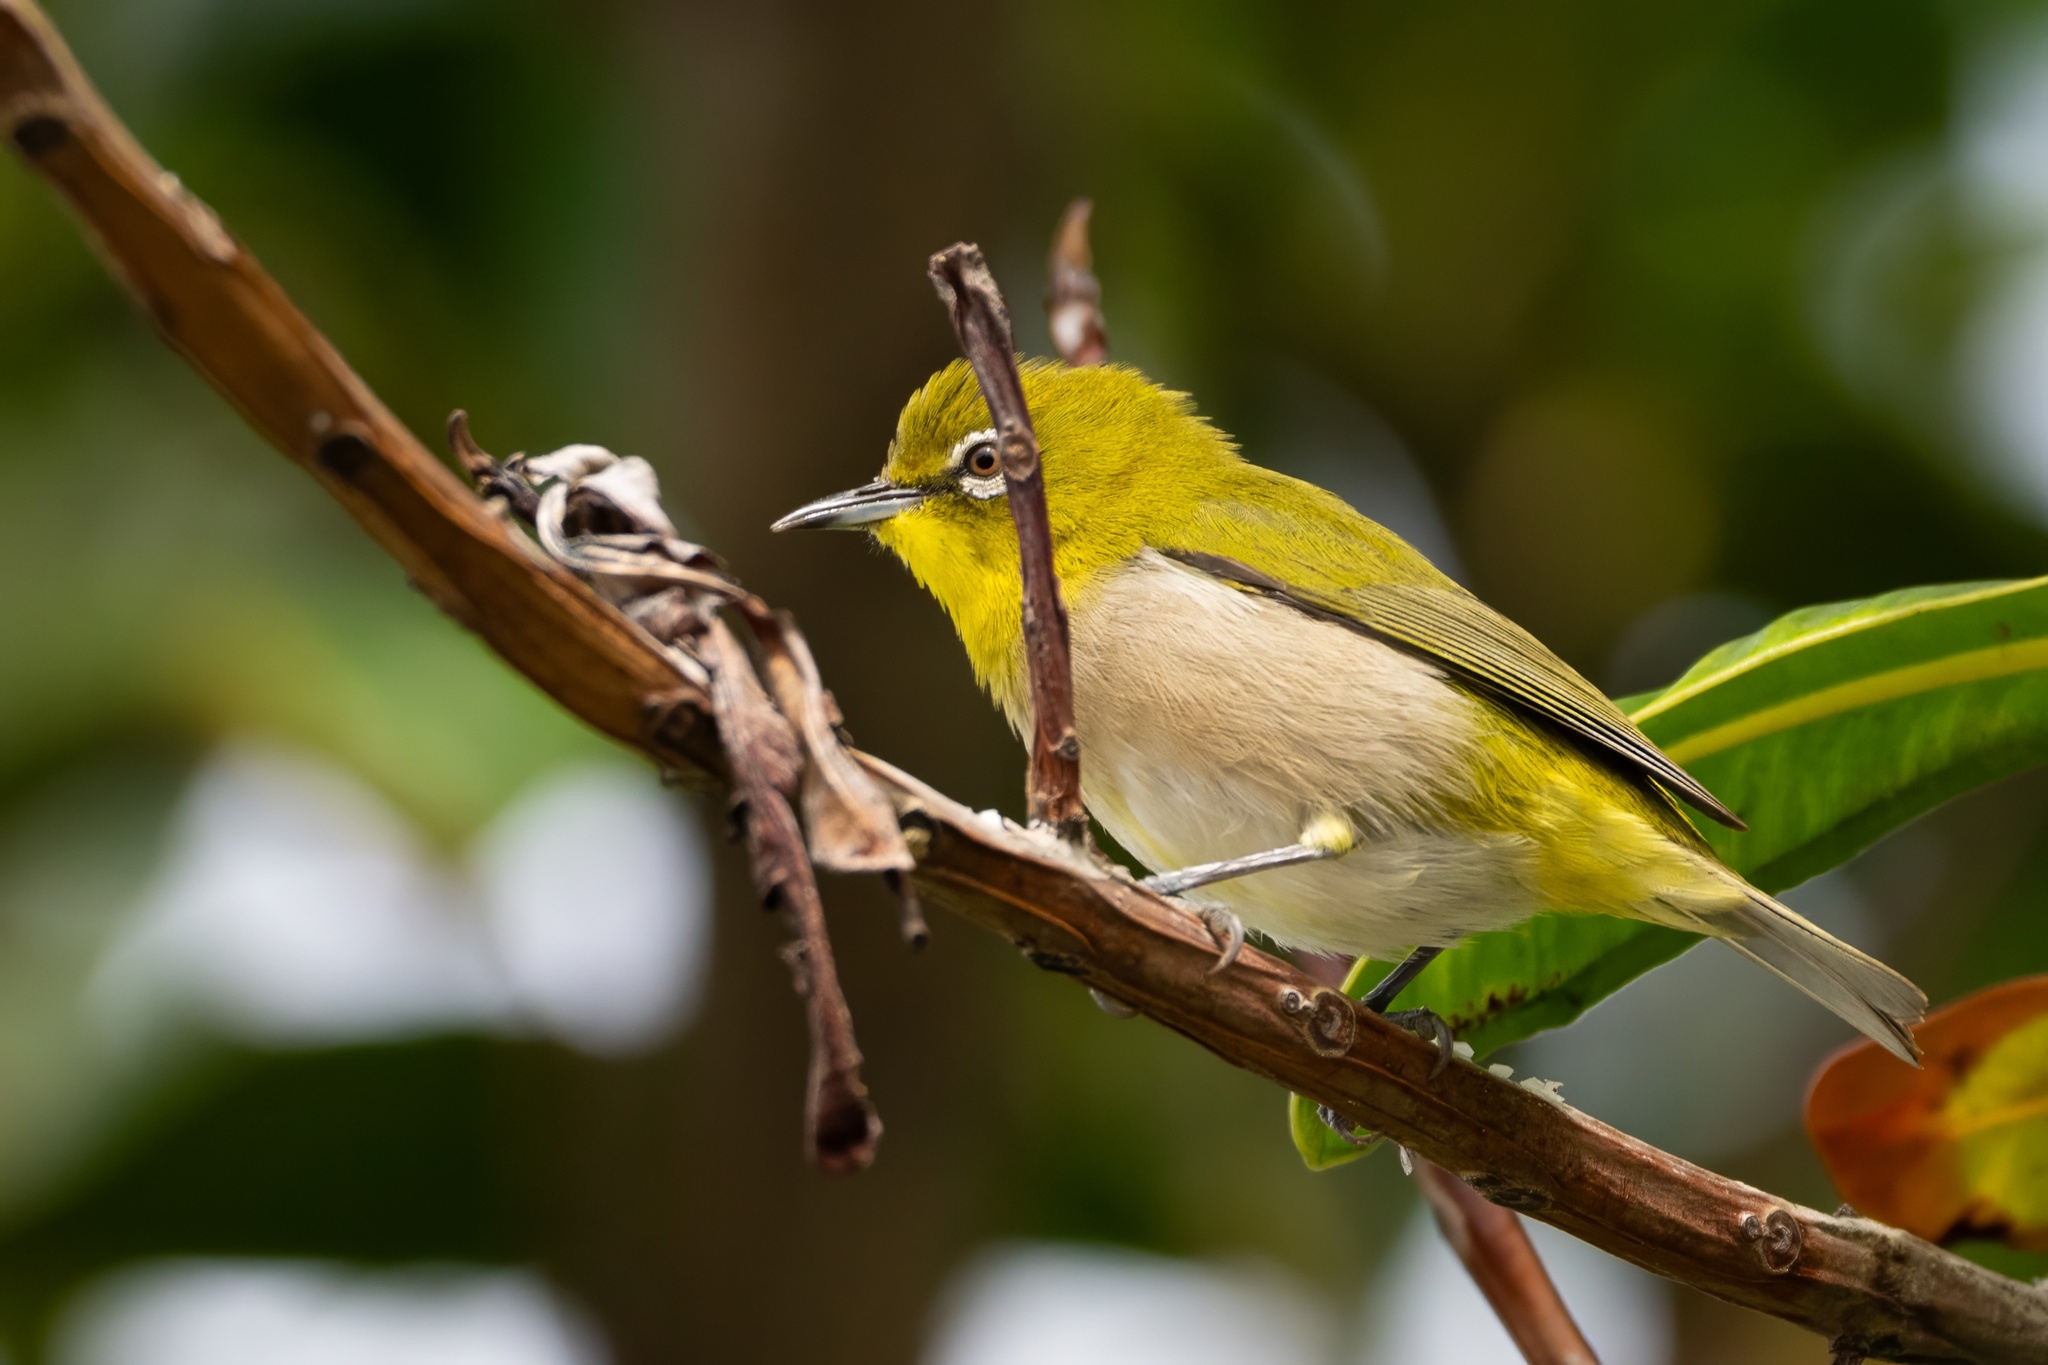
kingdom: Animalia
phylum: Chordata
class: Aves
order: Passeriformes
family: Zosteropidae
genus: Zosterops
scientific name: Zosterops japonicus
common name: Japanese white-eye
